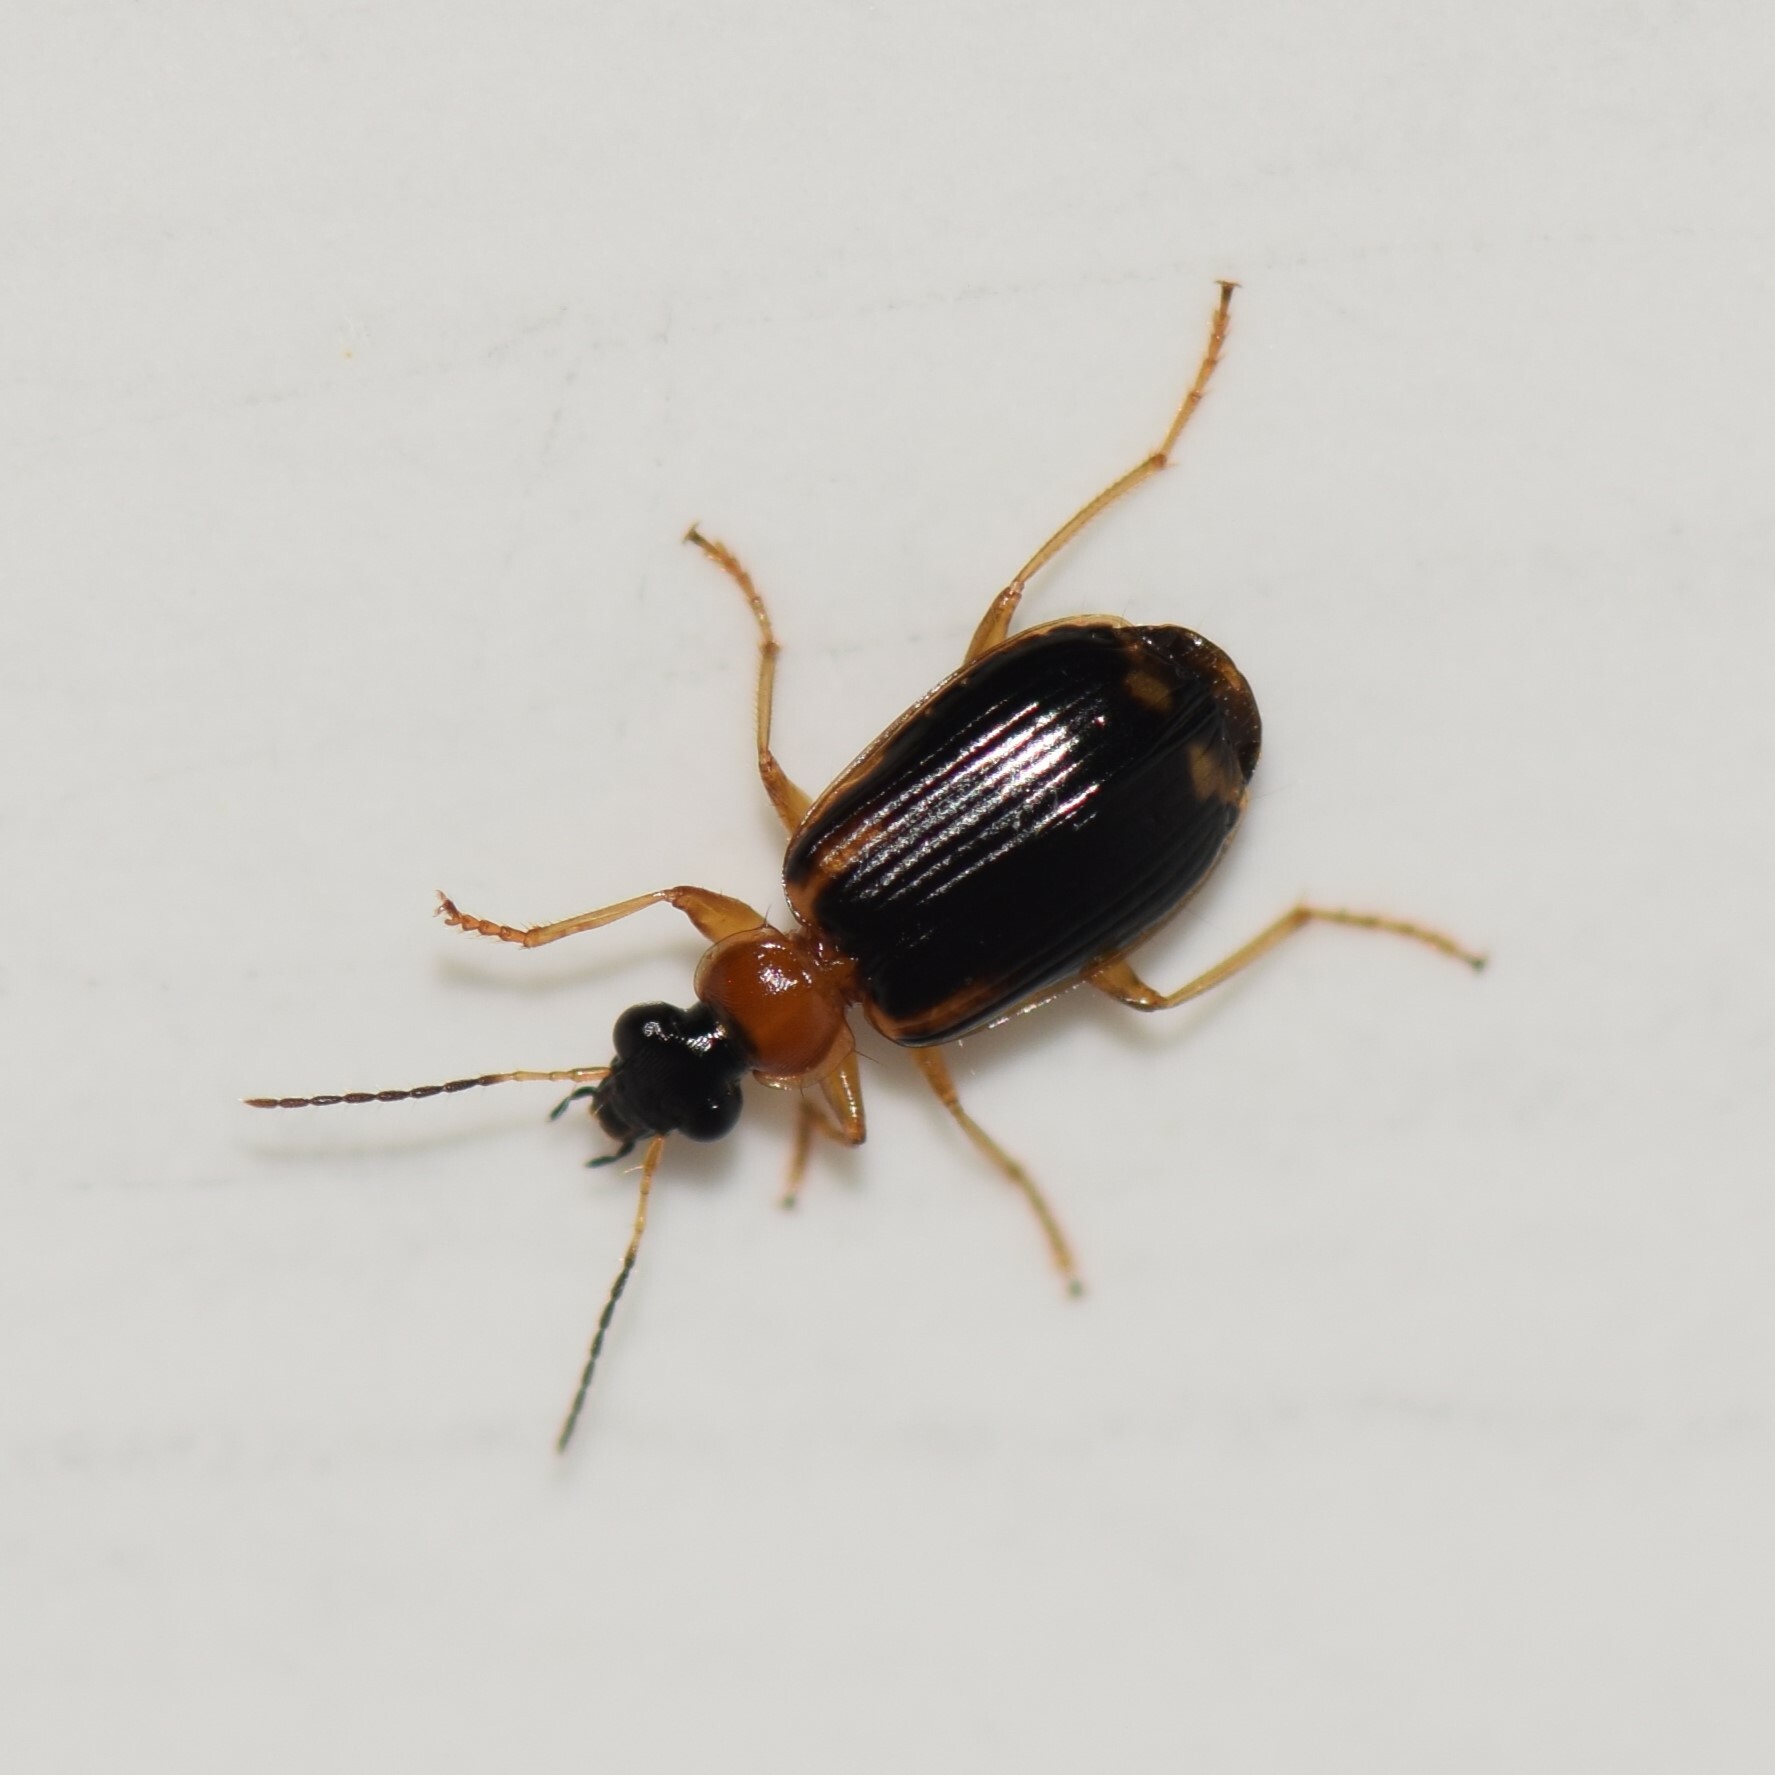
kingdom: Animalia
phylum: Arthropoda
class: Insecta
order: Coleoptera
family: Carabidae
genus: Lebia
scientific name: Lebia analis
